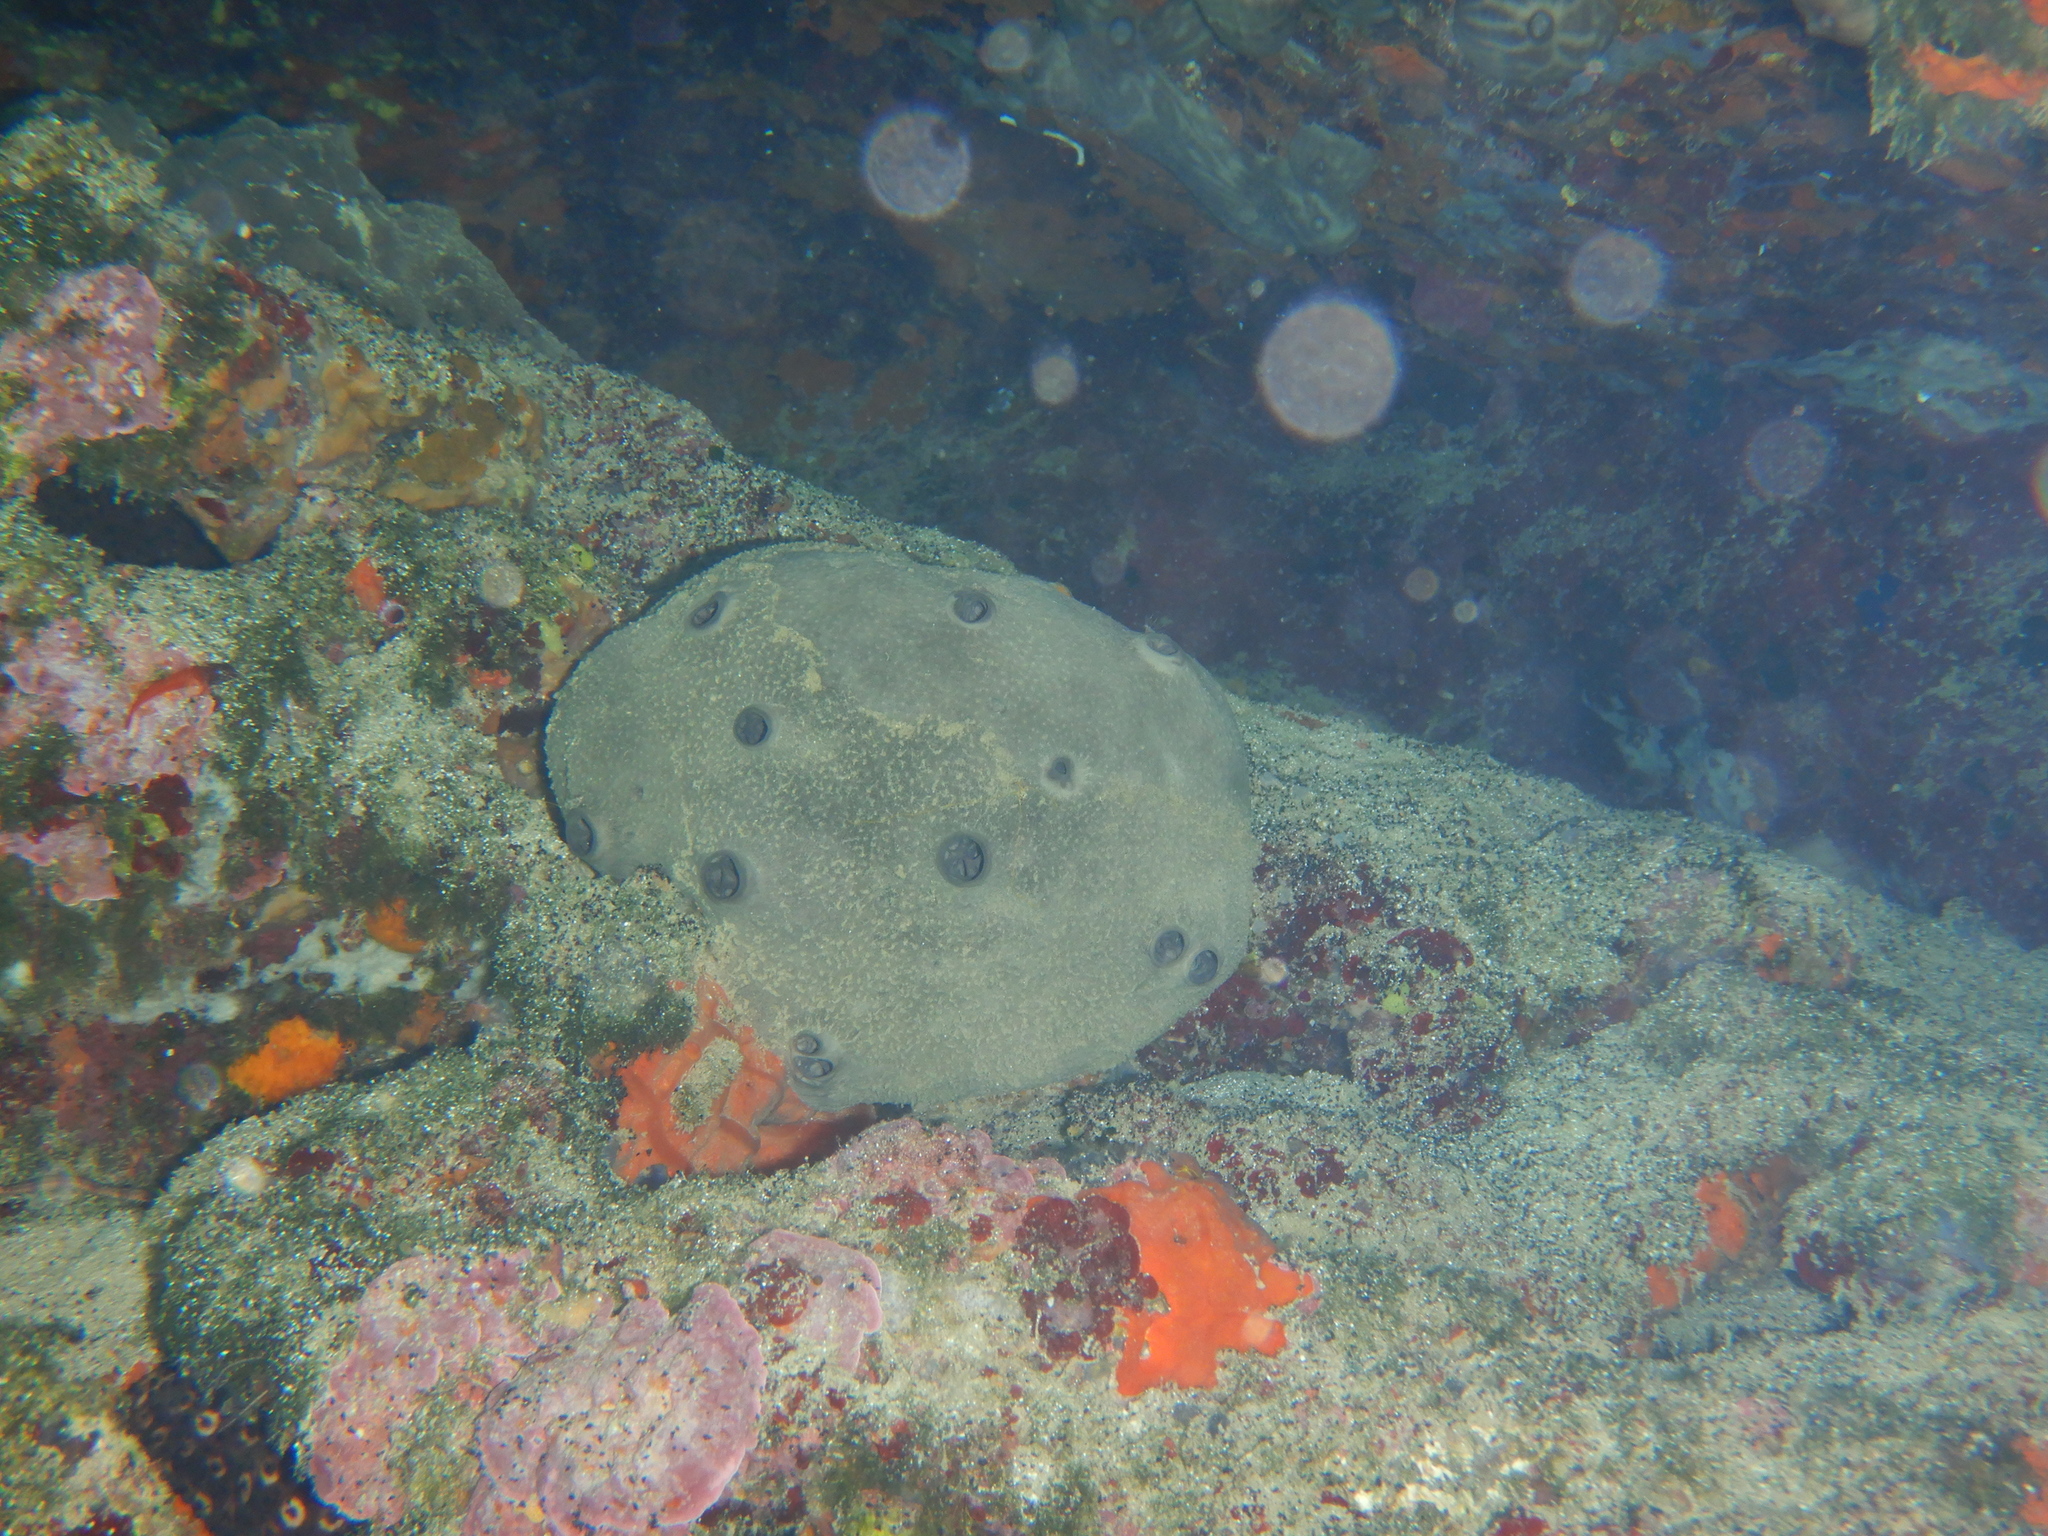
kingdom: Animalia
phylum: Porifera
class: Demospongiae
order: Dictyoceratida
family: Irciniidae
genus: Ircinia
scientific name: Ircinia oros
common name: Grey leather sponge
